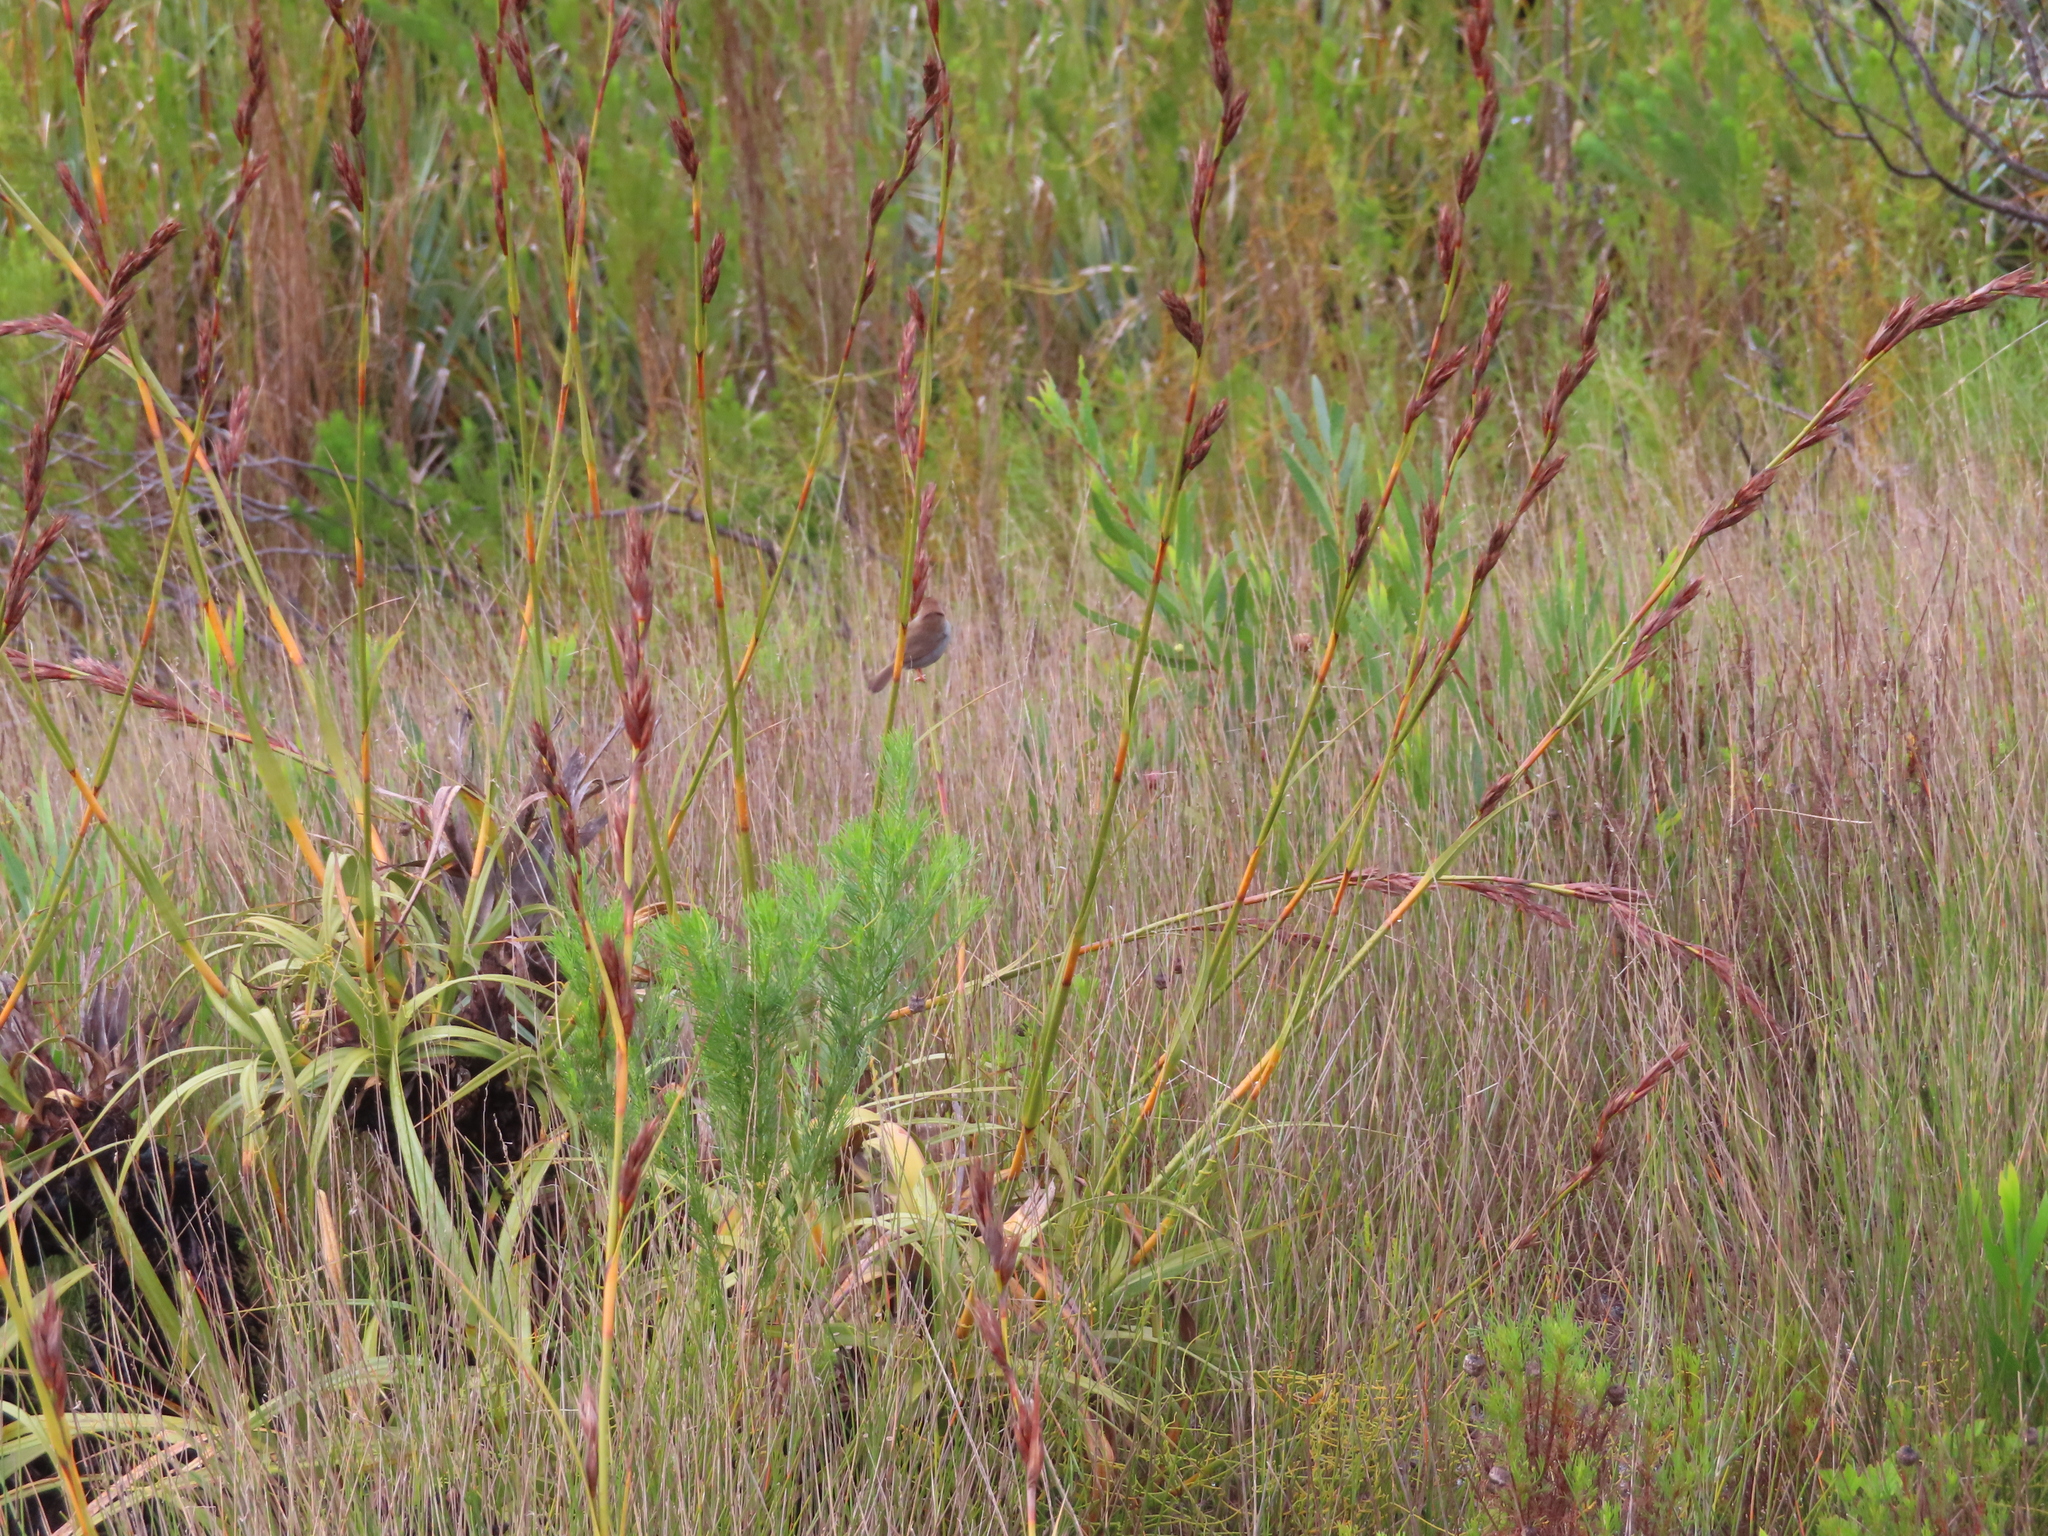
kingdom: Animalia
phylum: Chordata
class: Aves
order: Passeriformes
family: Cisticolidae
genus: Cisticola
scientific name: Cisticola fulvicapilla
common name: Neddicky
